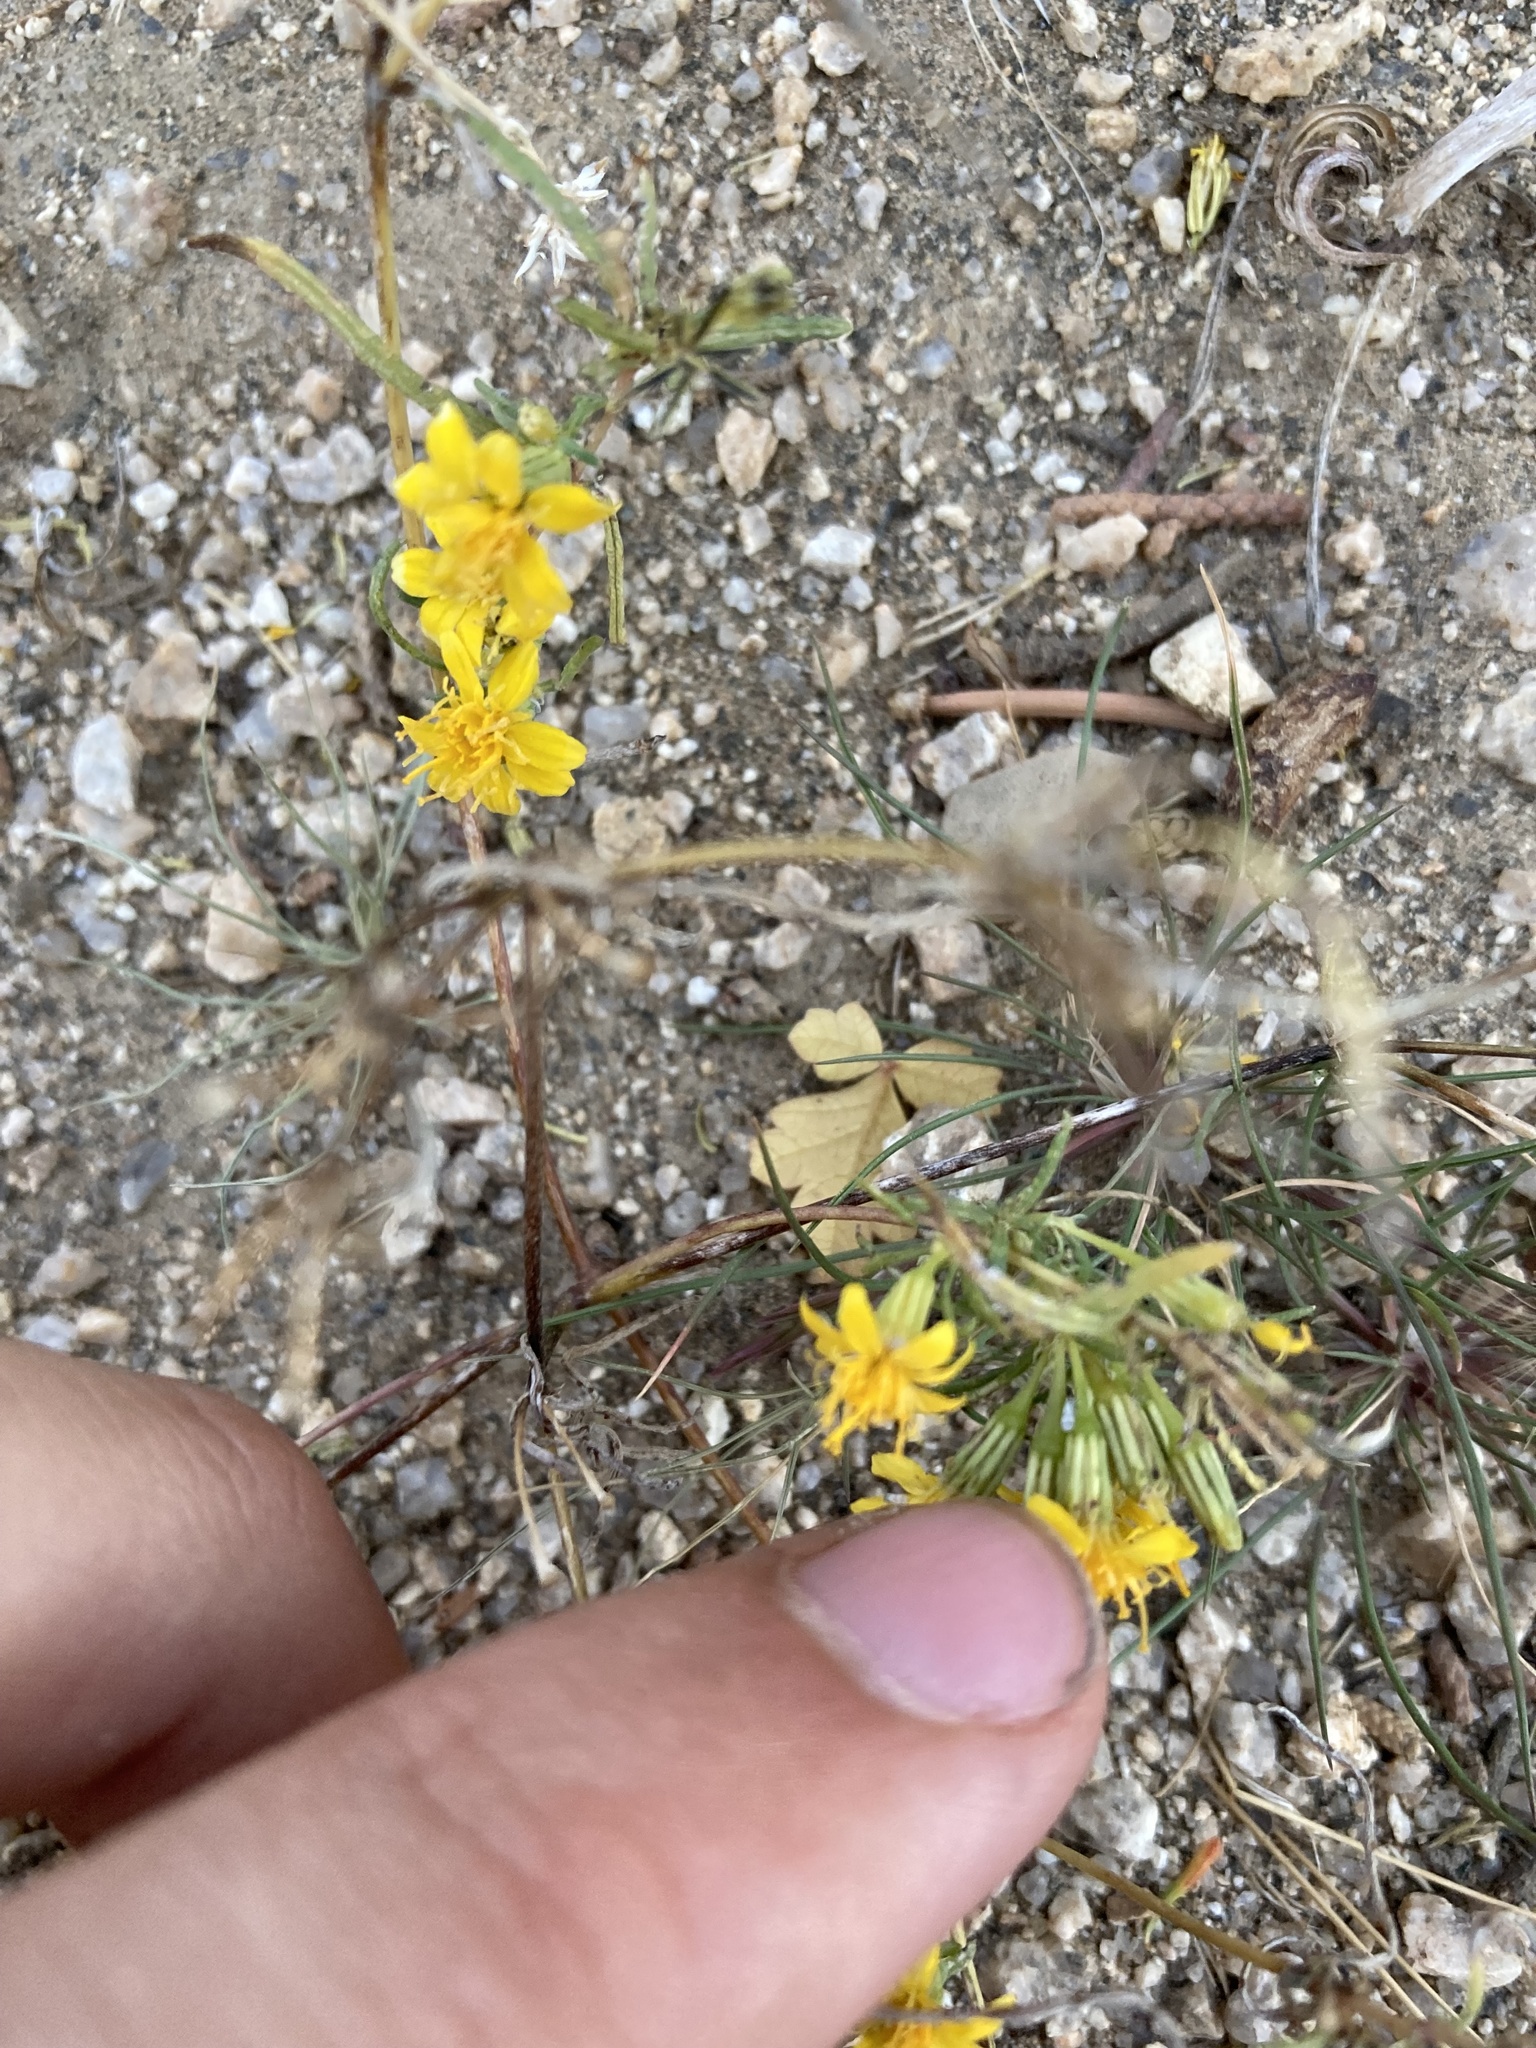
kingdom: Plantae
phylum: Tracheophyta
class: Magnoliopsida
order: Asterales
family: Asteraceae
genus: Pectis
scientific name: Pectis papposa
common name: Many-bristle chinchweed
